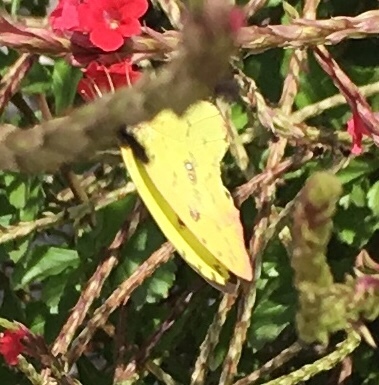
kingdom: Animalia
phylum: Arthropoda
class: Insecta
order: Lepidoptera
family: Pieridae
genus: Phoebis
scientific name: Phoebis sennae
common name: Cloudless sulphur
